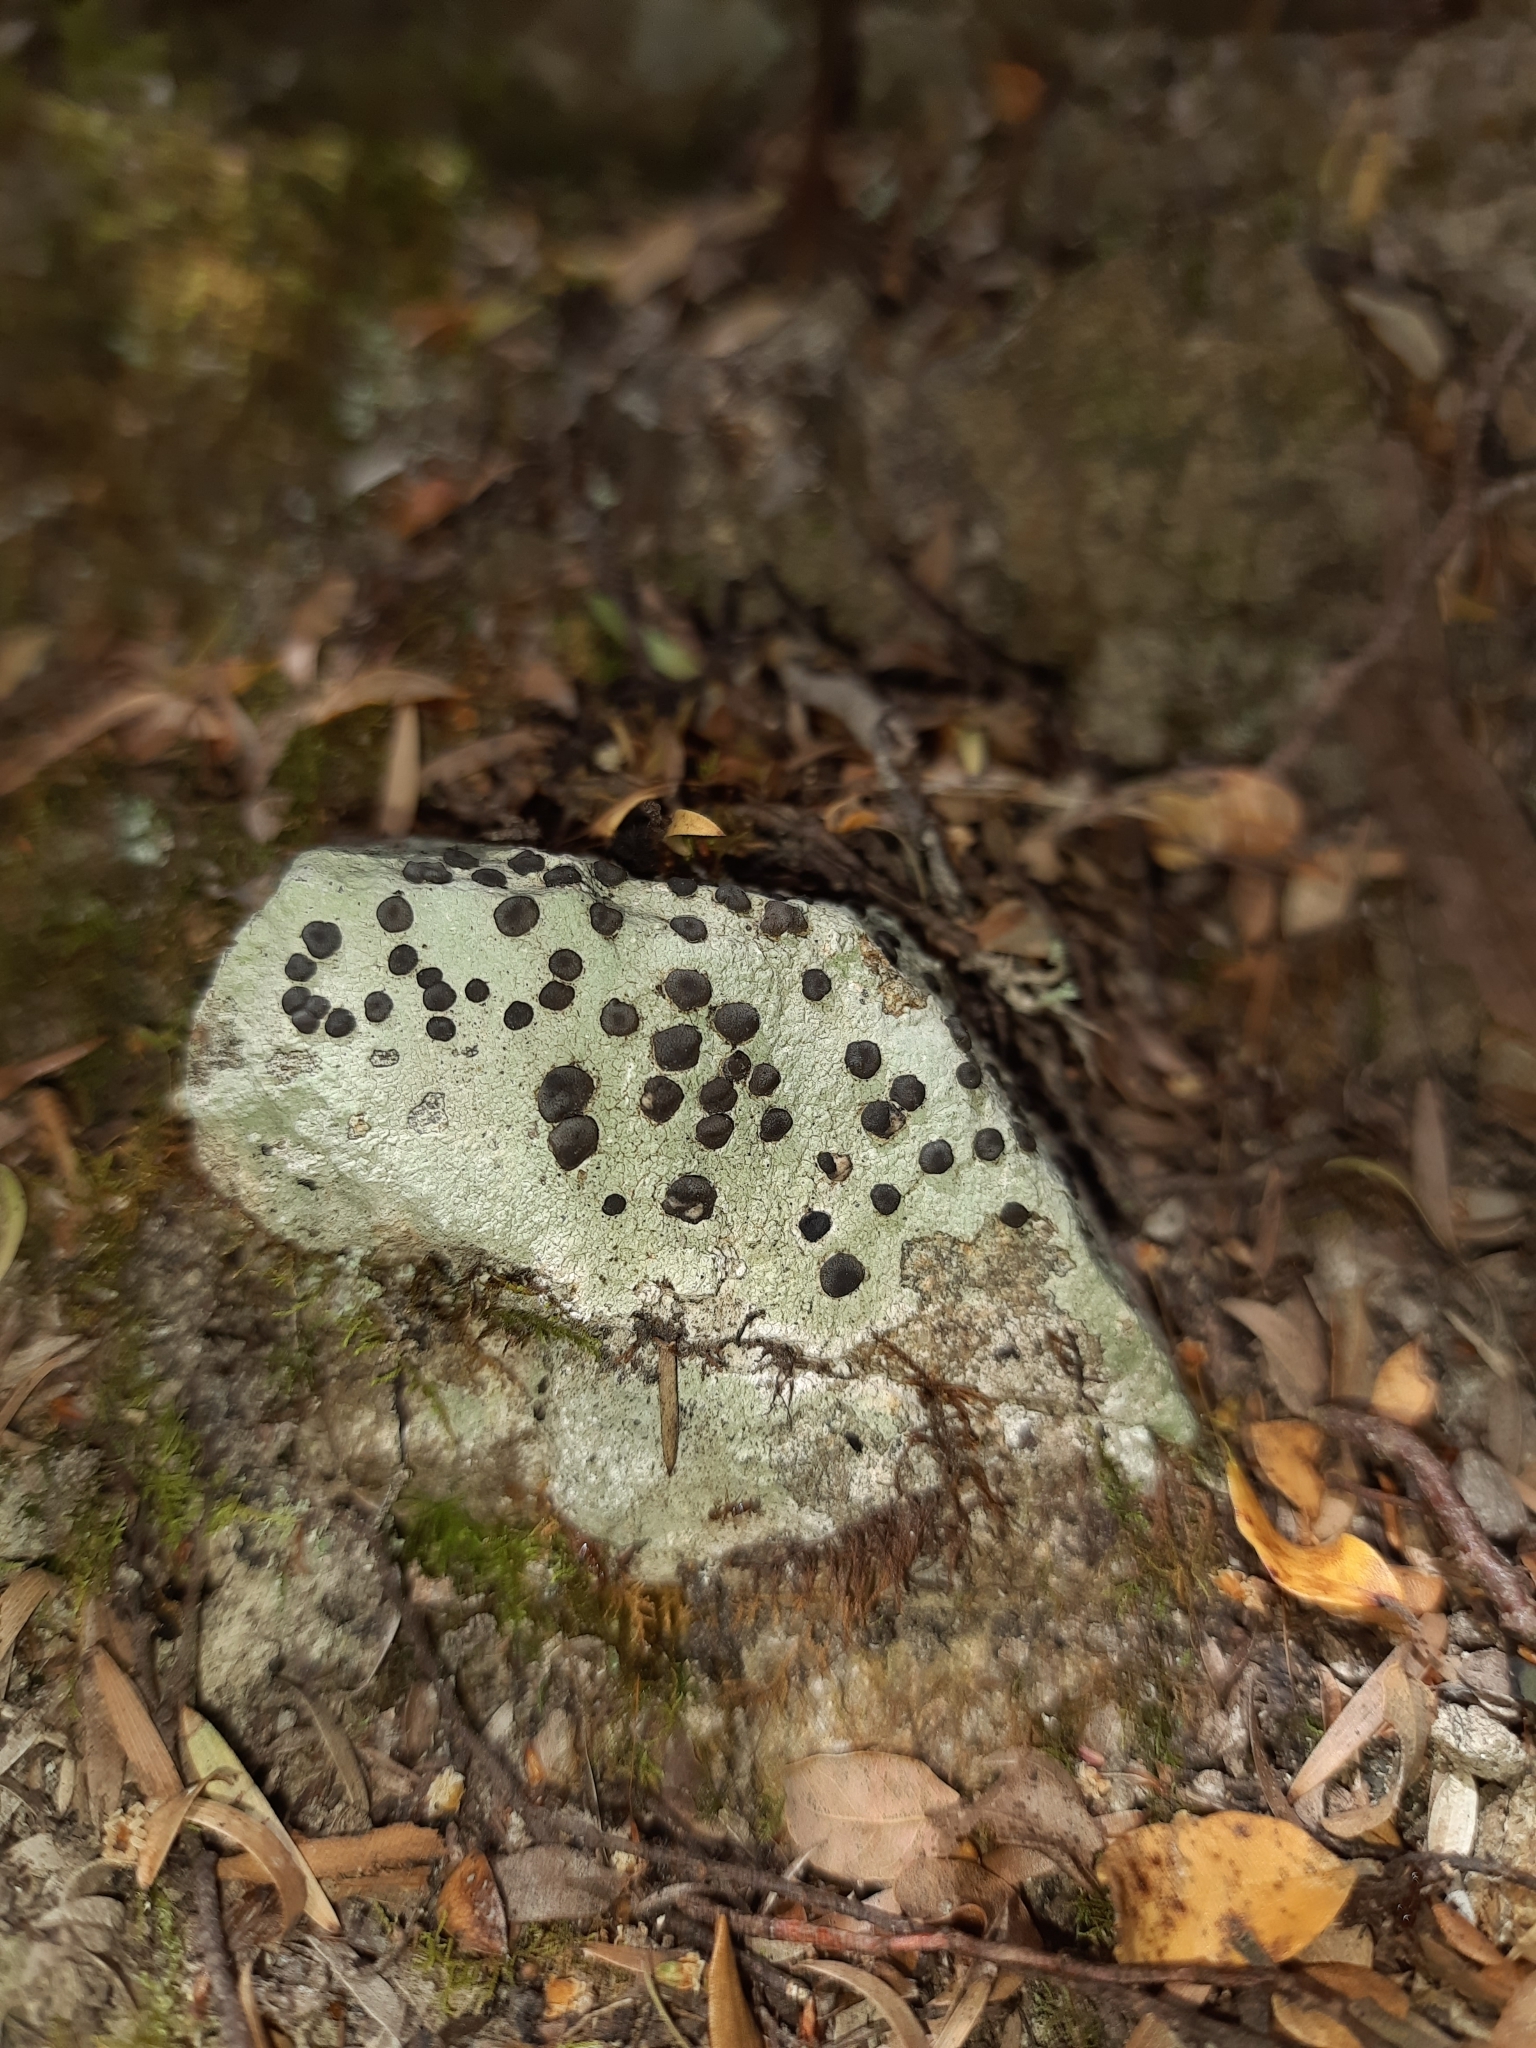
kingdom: Fungi
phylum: Ascomycota
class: Lecanoromycetes
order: Lecanorales
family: Tephromelataceae
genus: Tephromela
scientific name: Tephromela atra
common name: Black shields
